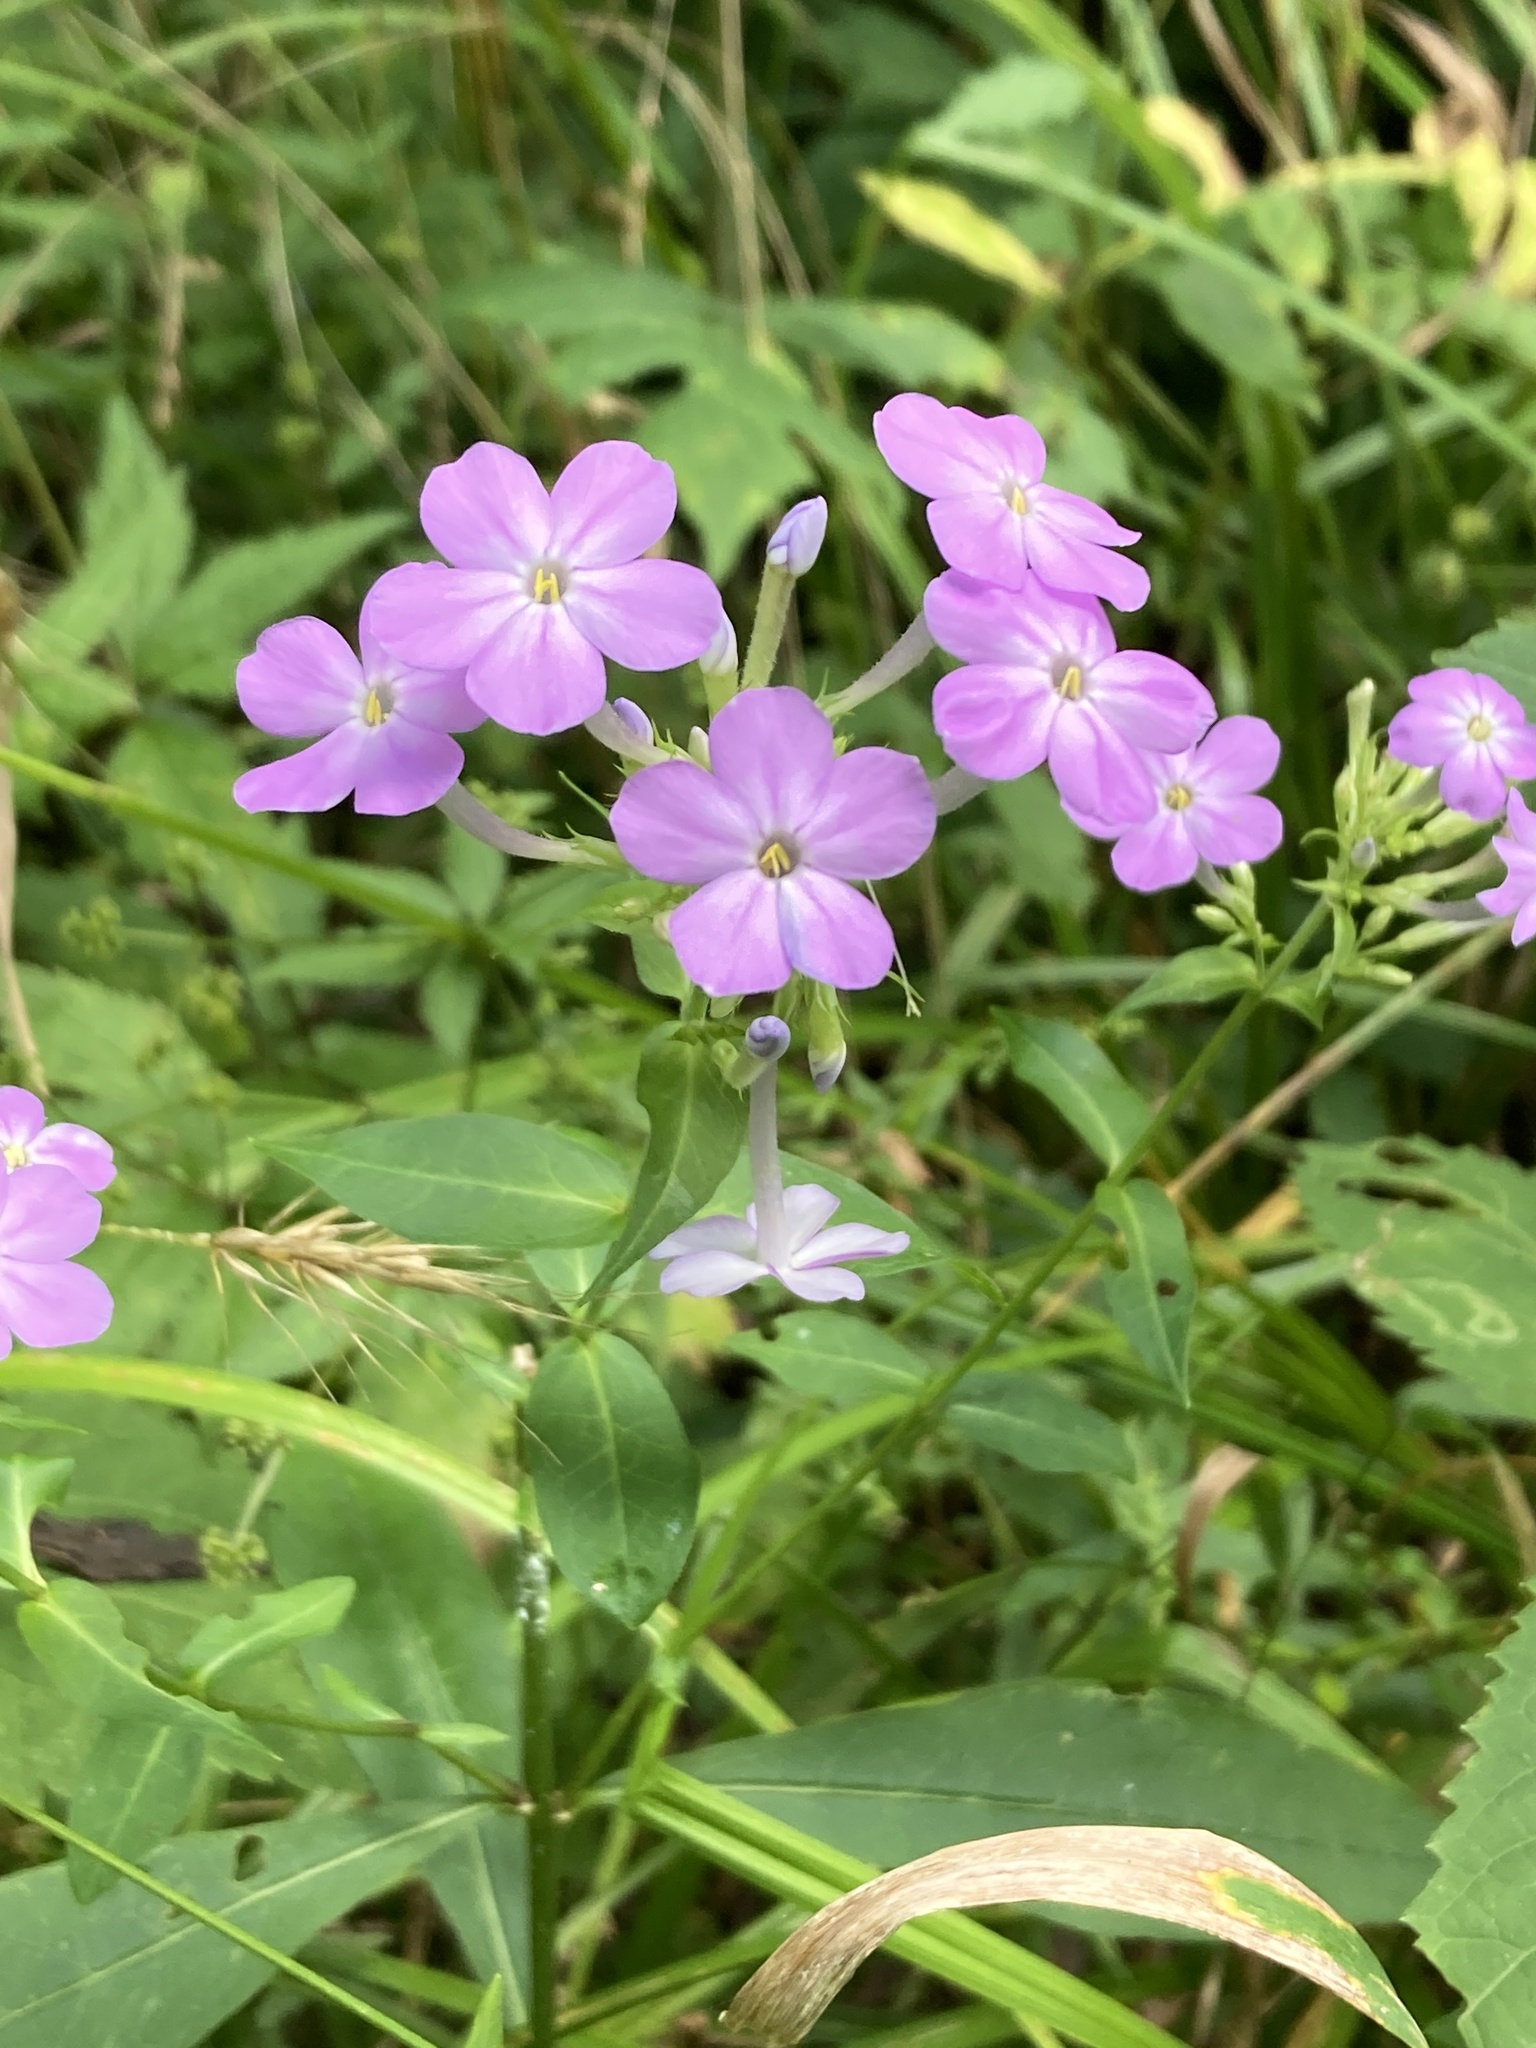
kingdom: Plantae
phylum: Tracheophyta
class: Magnoliopsida
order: Ericales
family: Polemoniaceae
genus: Phlox
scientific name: Phlox paniculata
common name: Fall phlox
